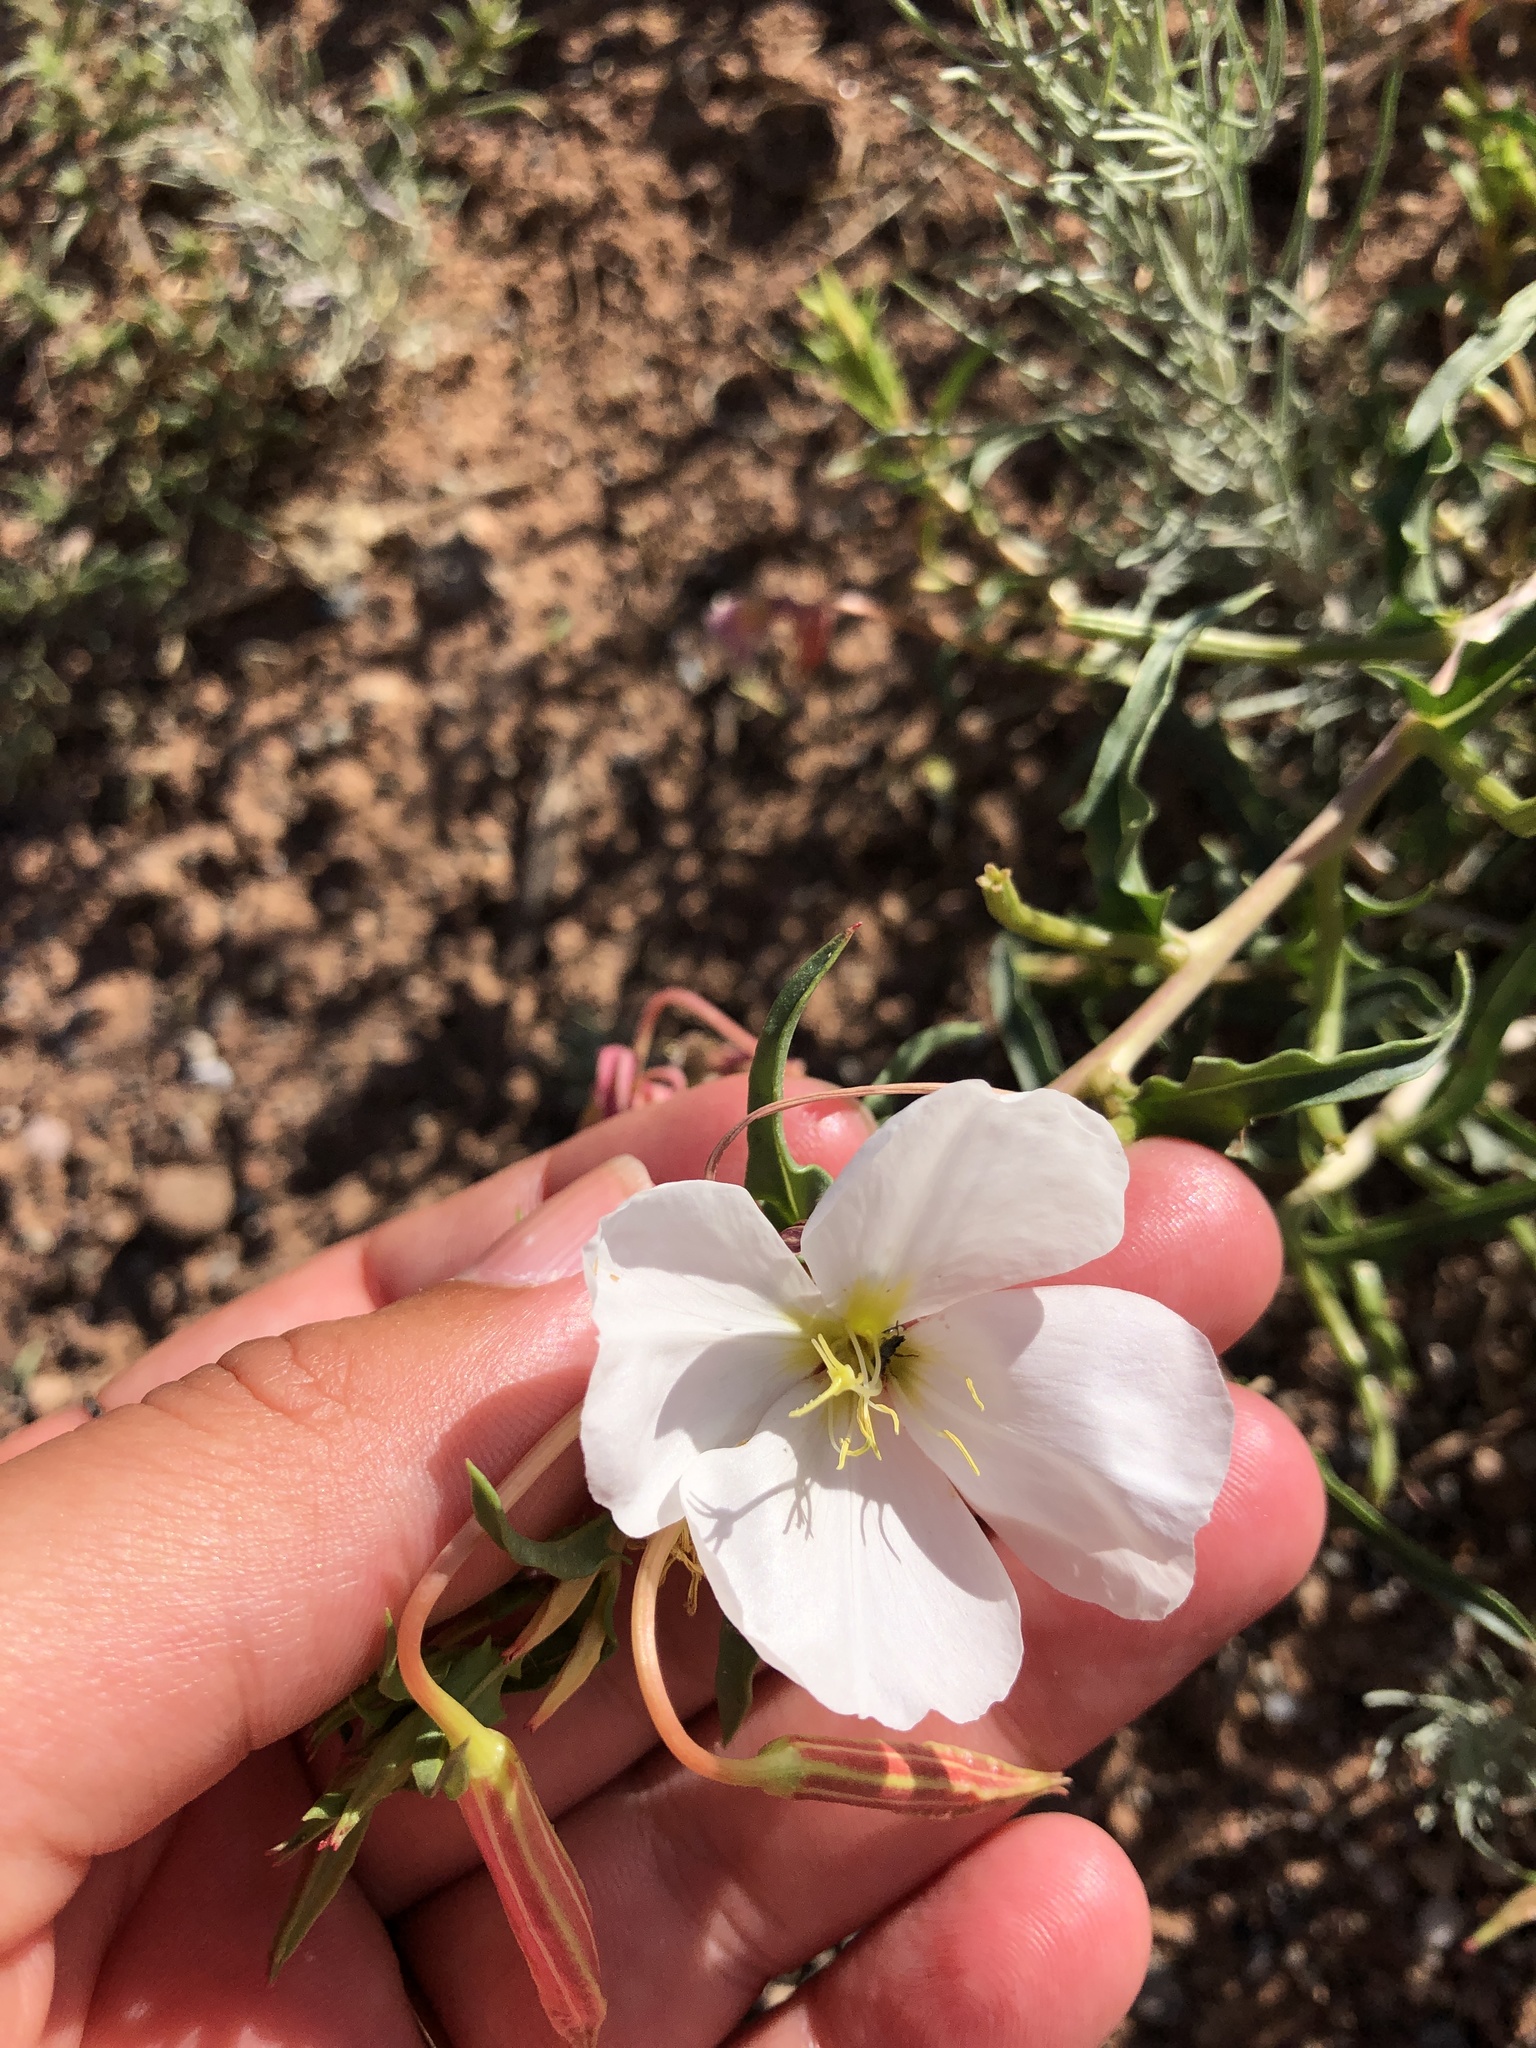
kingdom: Plantae
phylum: Tracheophyta
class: Magnoliopsida
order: Myrtales
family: Onagraceae
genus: Oenothera
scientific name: Oenothera pallida
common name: Pale evening-primrose
